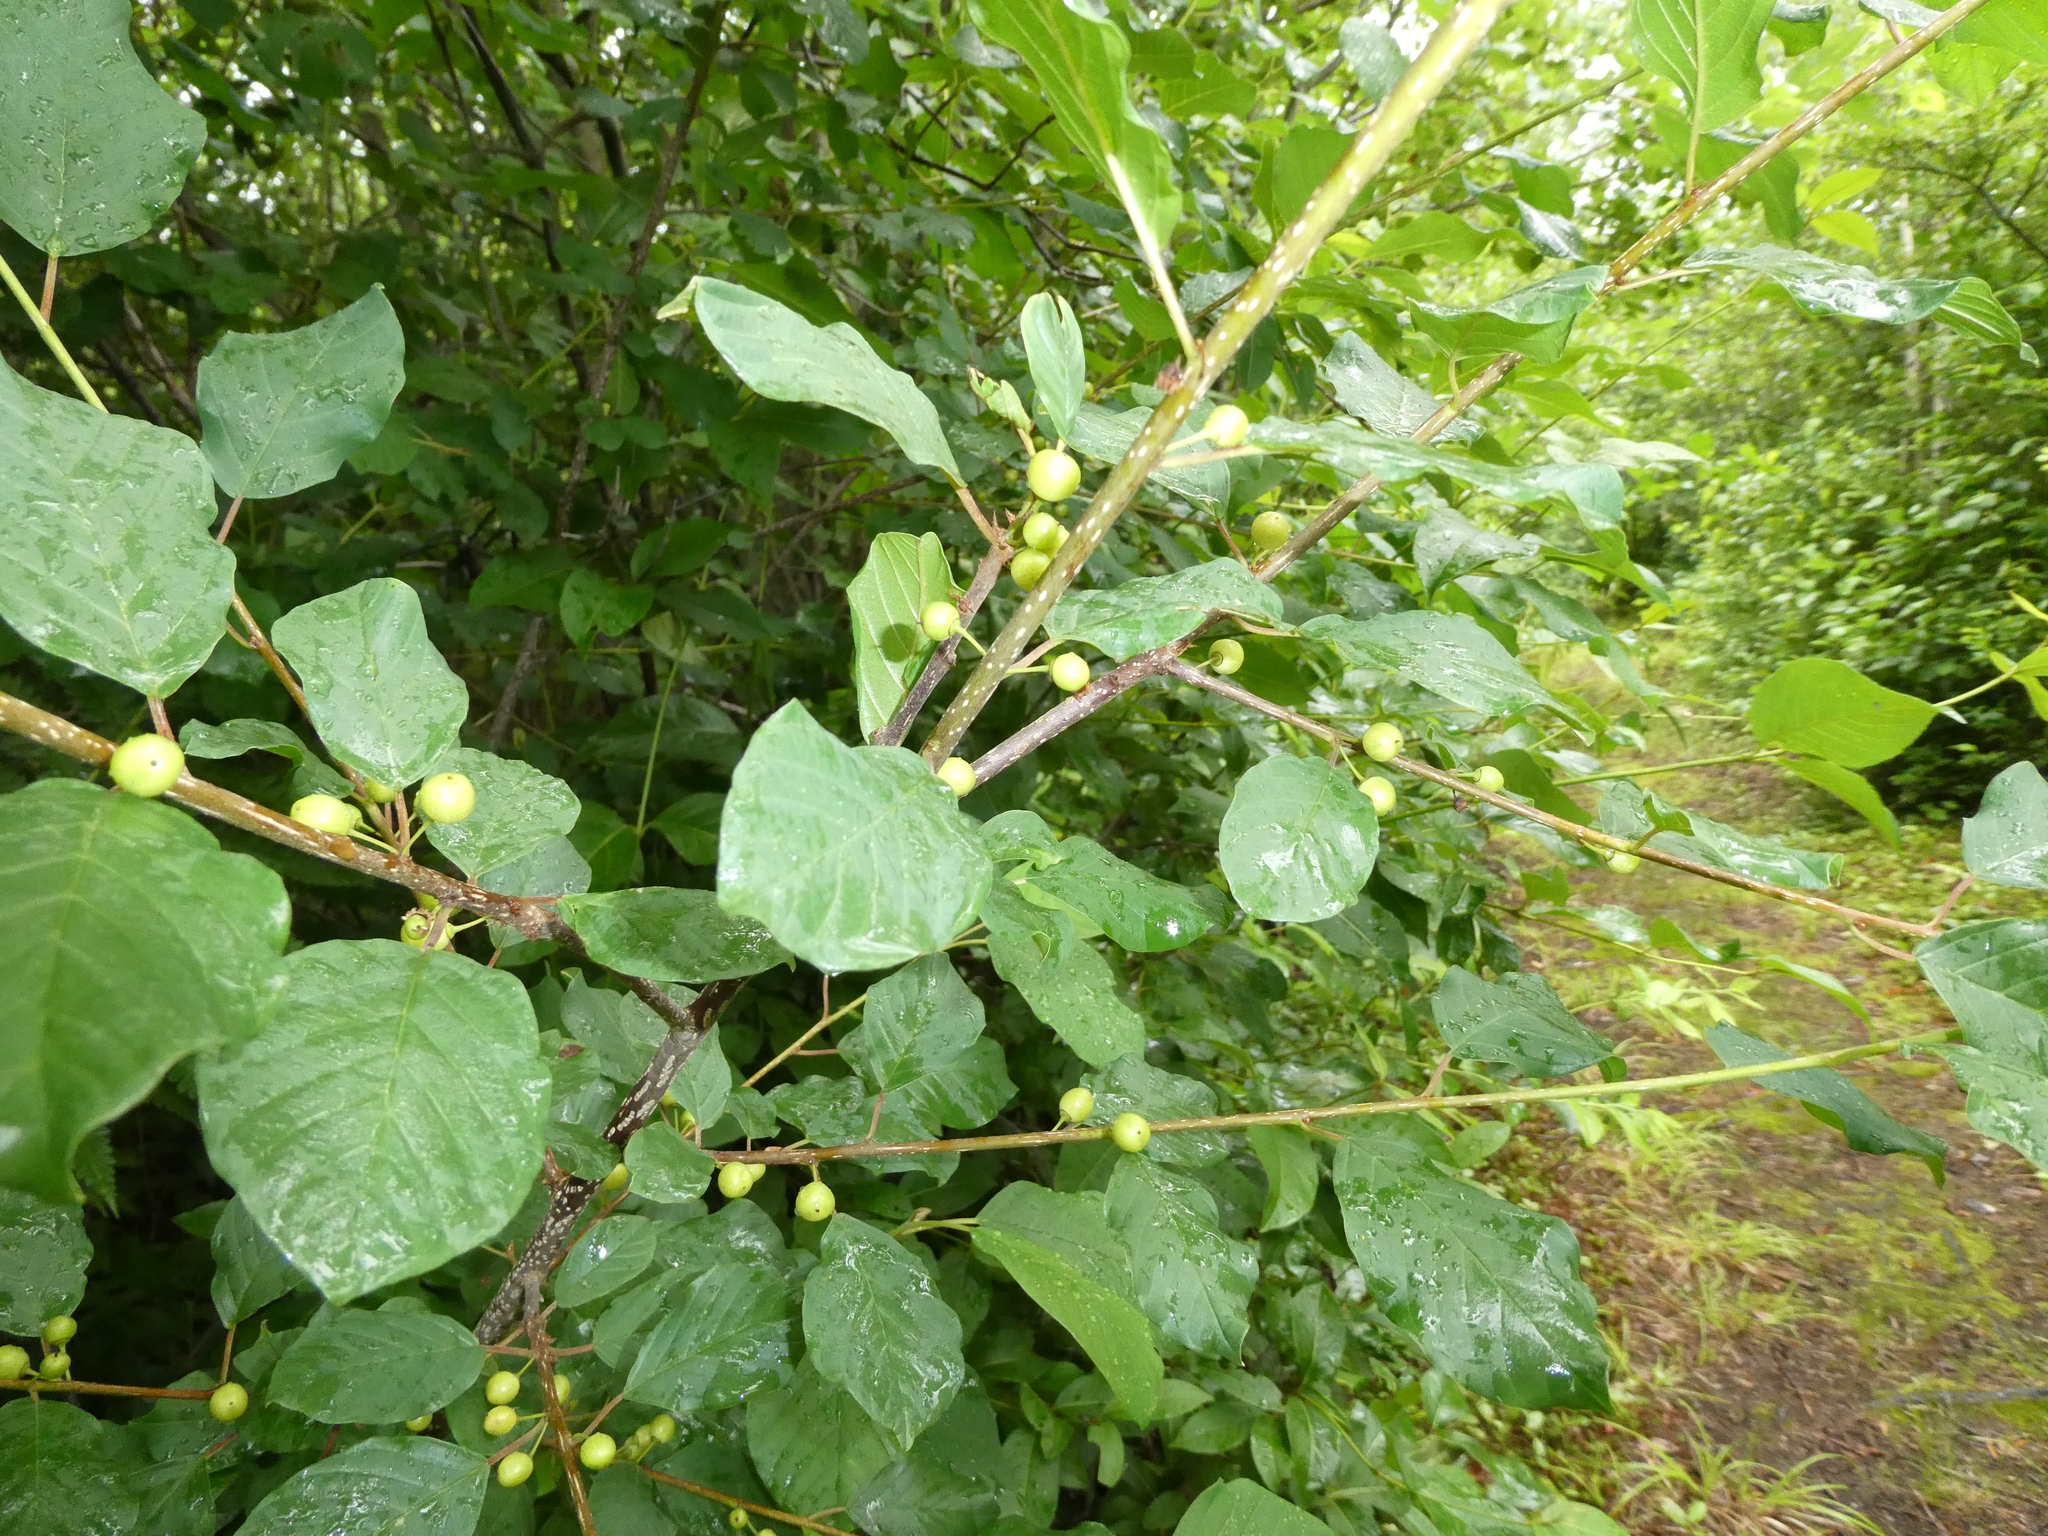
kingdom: Plantae
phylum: Tracheophyta
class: Magnoliopsida
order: Rosales
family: Rhamnaceae
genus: Frangula
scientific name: Frangula alnus
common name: Alder buckthorn
